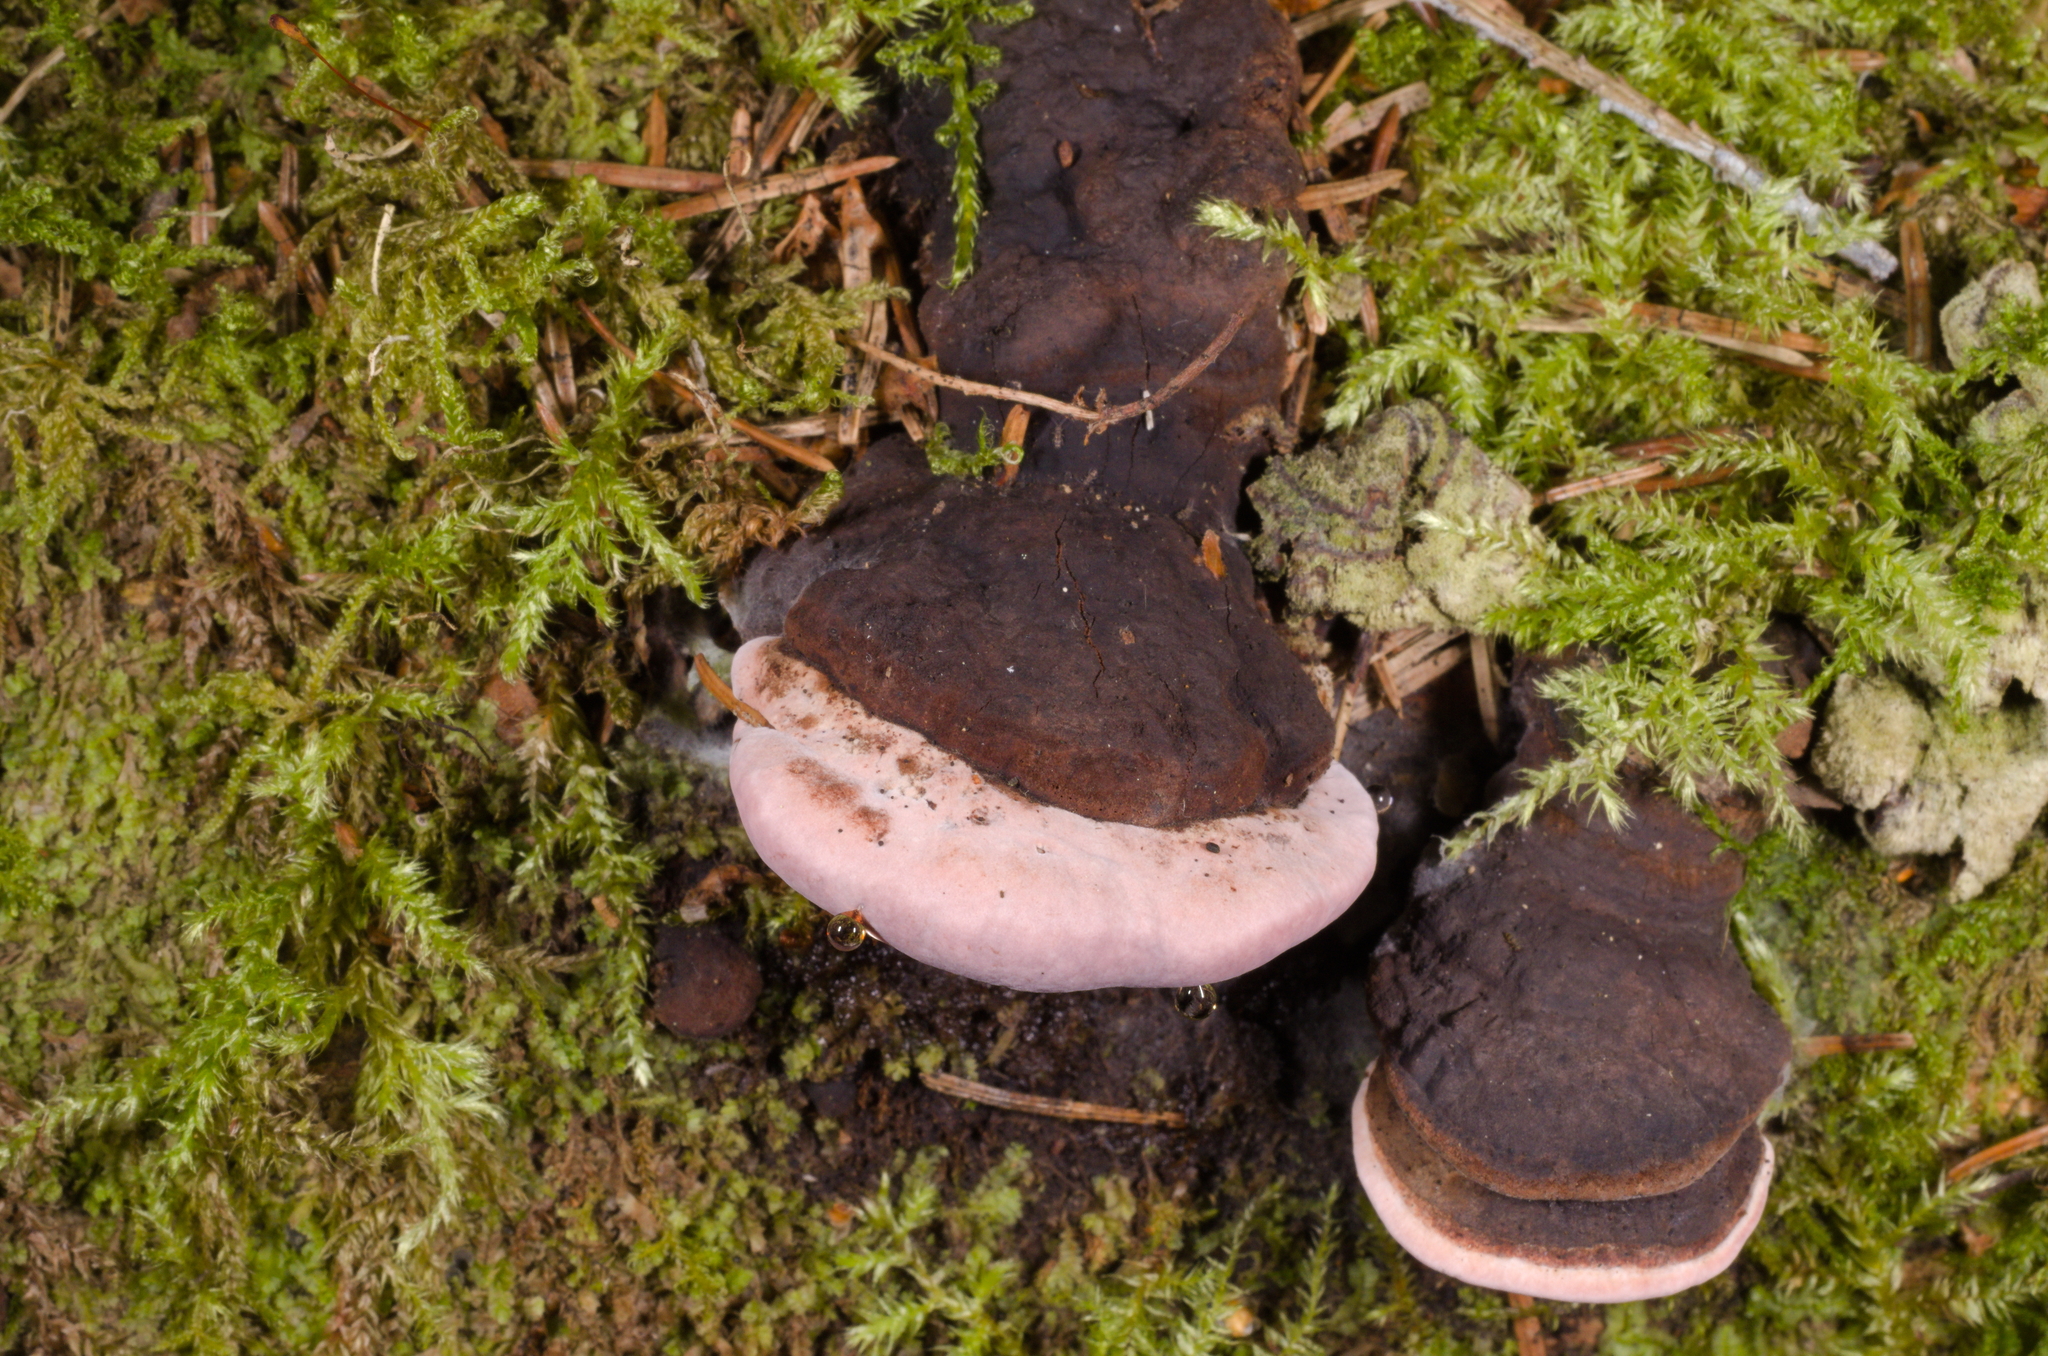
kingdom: Fungi
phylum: Basidiomycota
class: Agaricomycetes
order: Polyporales
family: Fomitopsidaceae
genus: Rhodofomes
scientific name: Rhodofomes roseus
